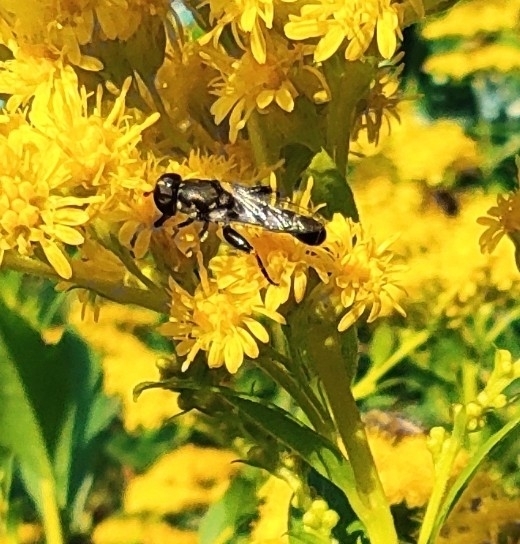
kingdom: Animalia
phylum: Arthropoda
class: Insecta
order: Diptera
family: Syrphidae
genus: Syritta
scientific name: Syritta pipiens
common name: Hover fly
